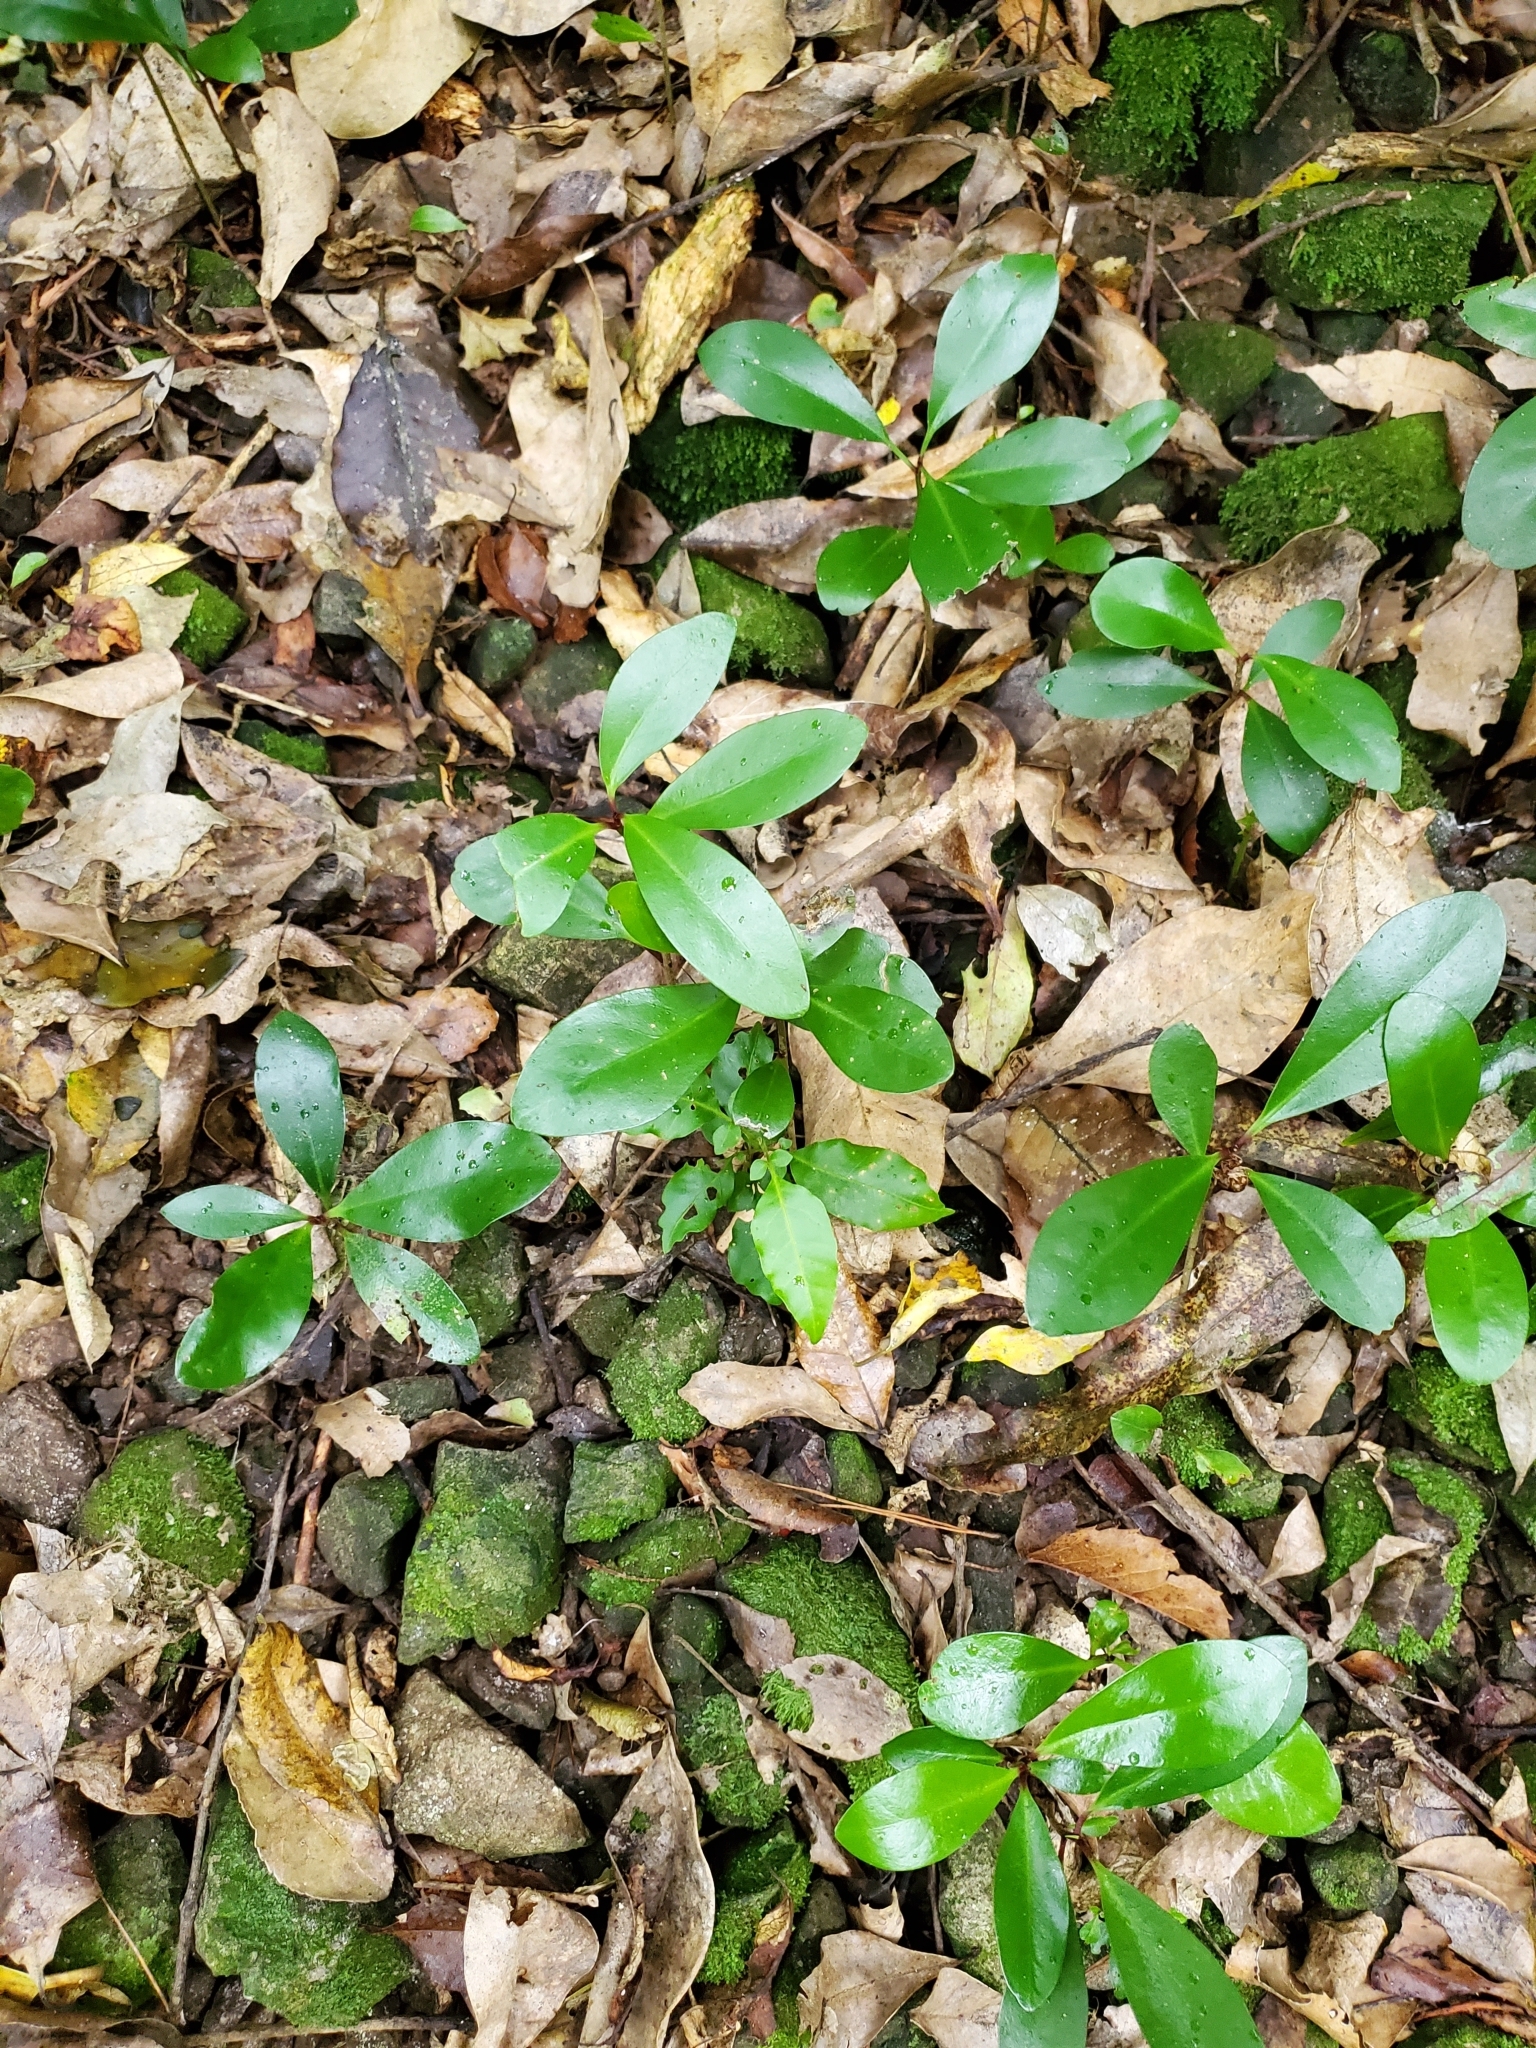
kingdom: Plantae
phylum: Tracheophyta
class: Magnoliopsida
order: Cucurbitales
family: Corynocarpaceae
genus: Corynocarpus
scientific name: Corynocarpus laevigatus
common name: New zealand laurel
